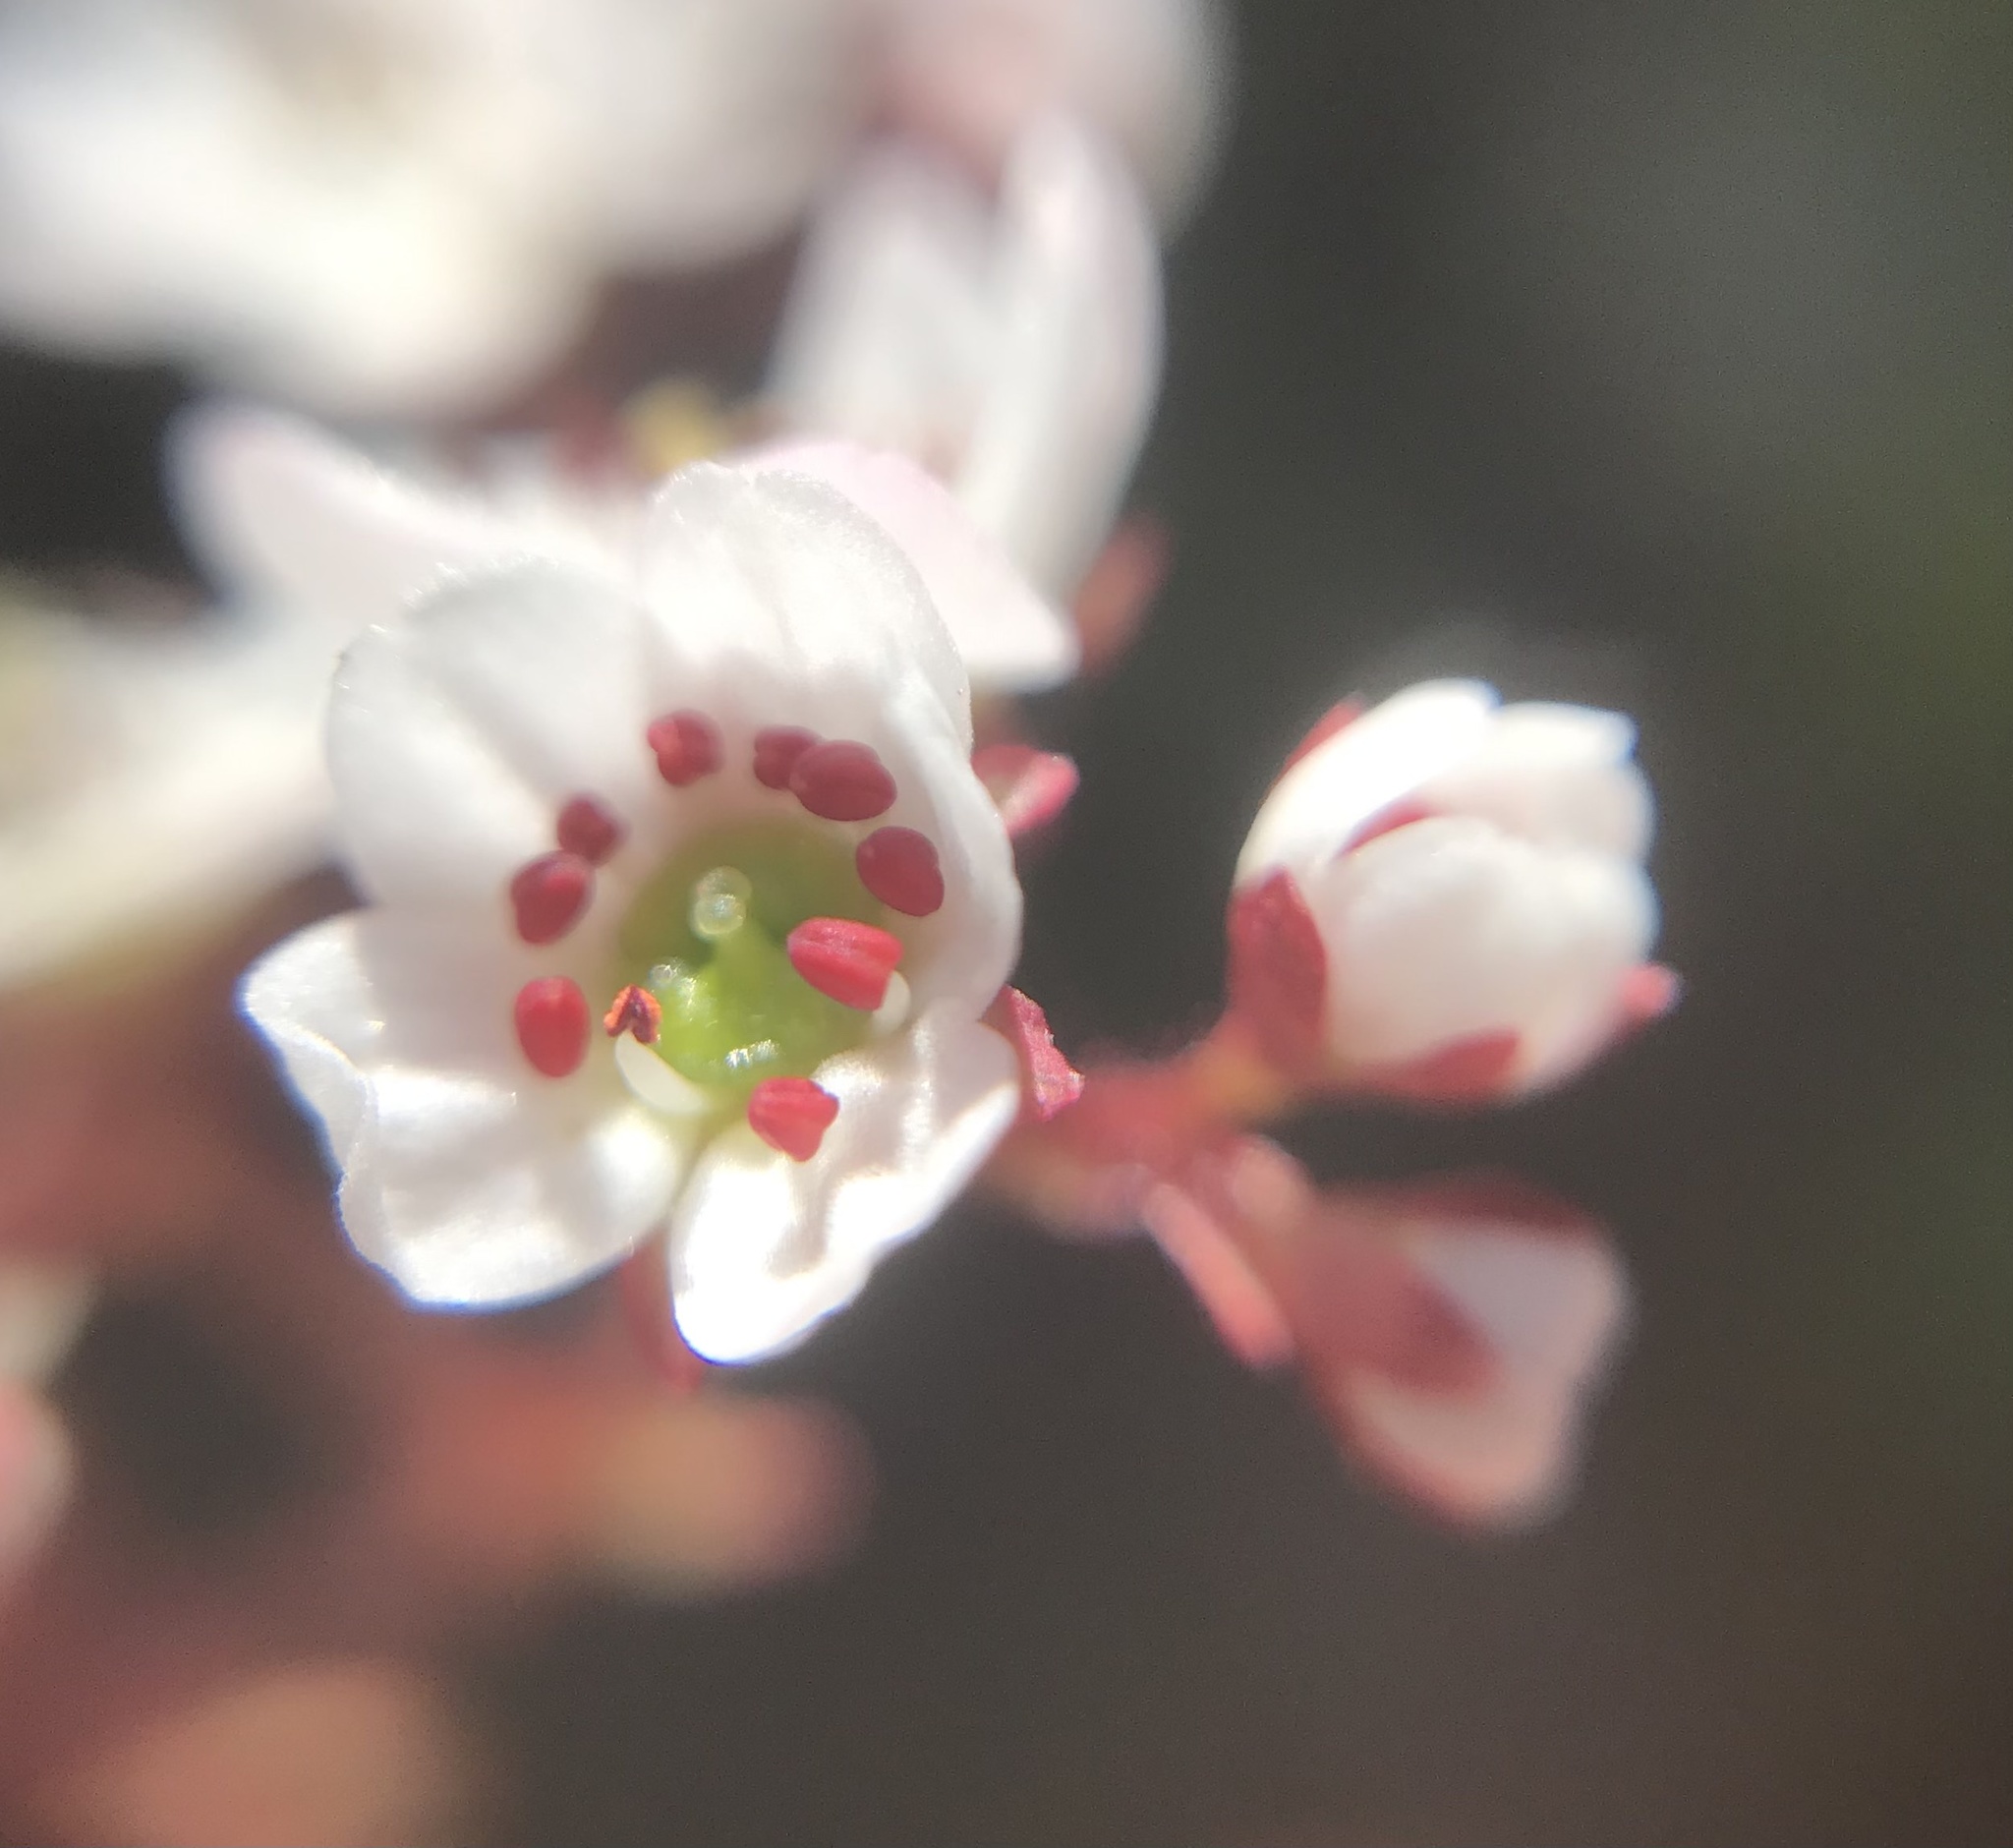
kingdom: Plantae
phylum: Tracheophyta
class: Magnoliopsida
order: Saxifragales
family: Saxifragaceae
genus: Micranthes
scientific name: Micranthes californica
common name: California saxifrage
